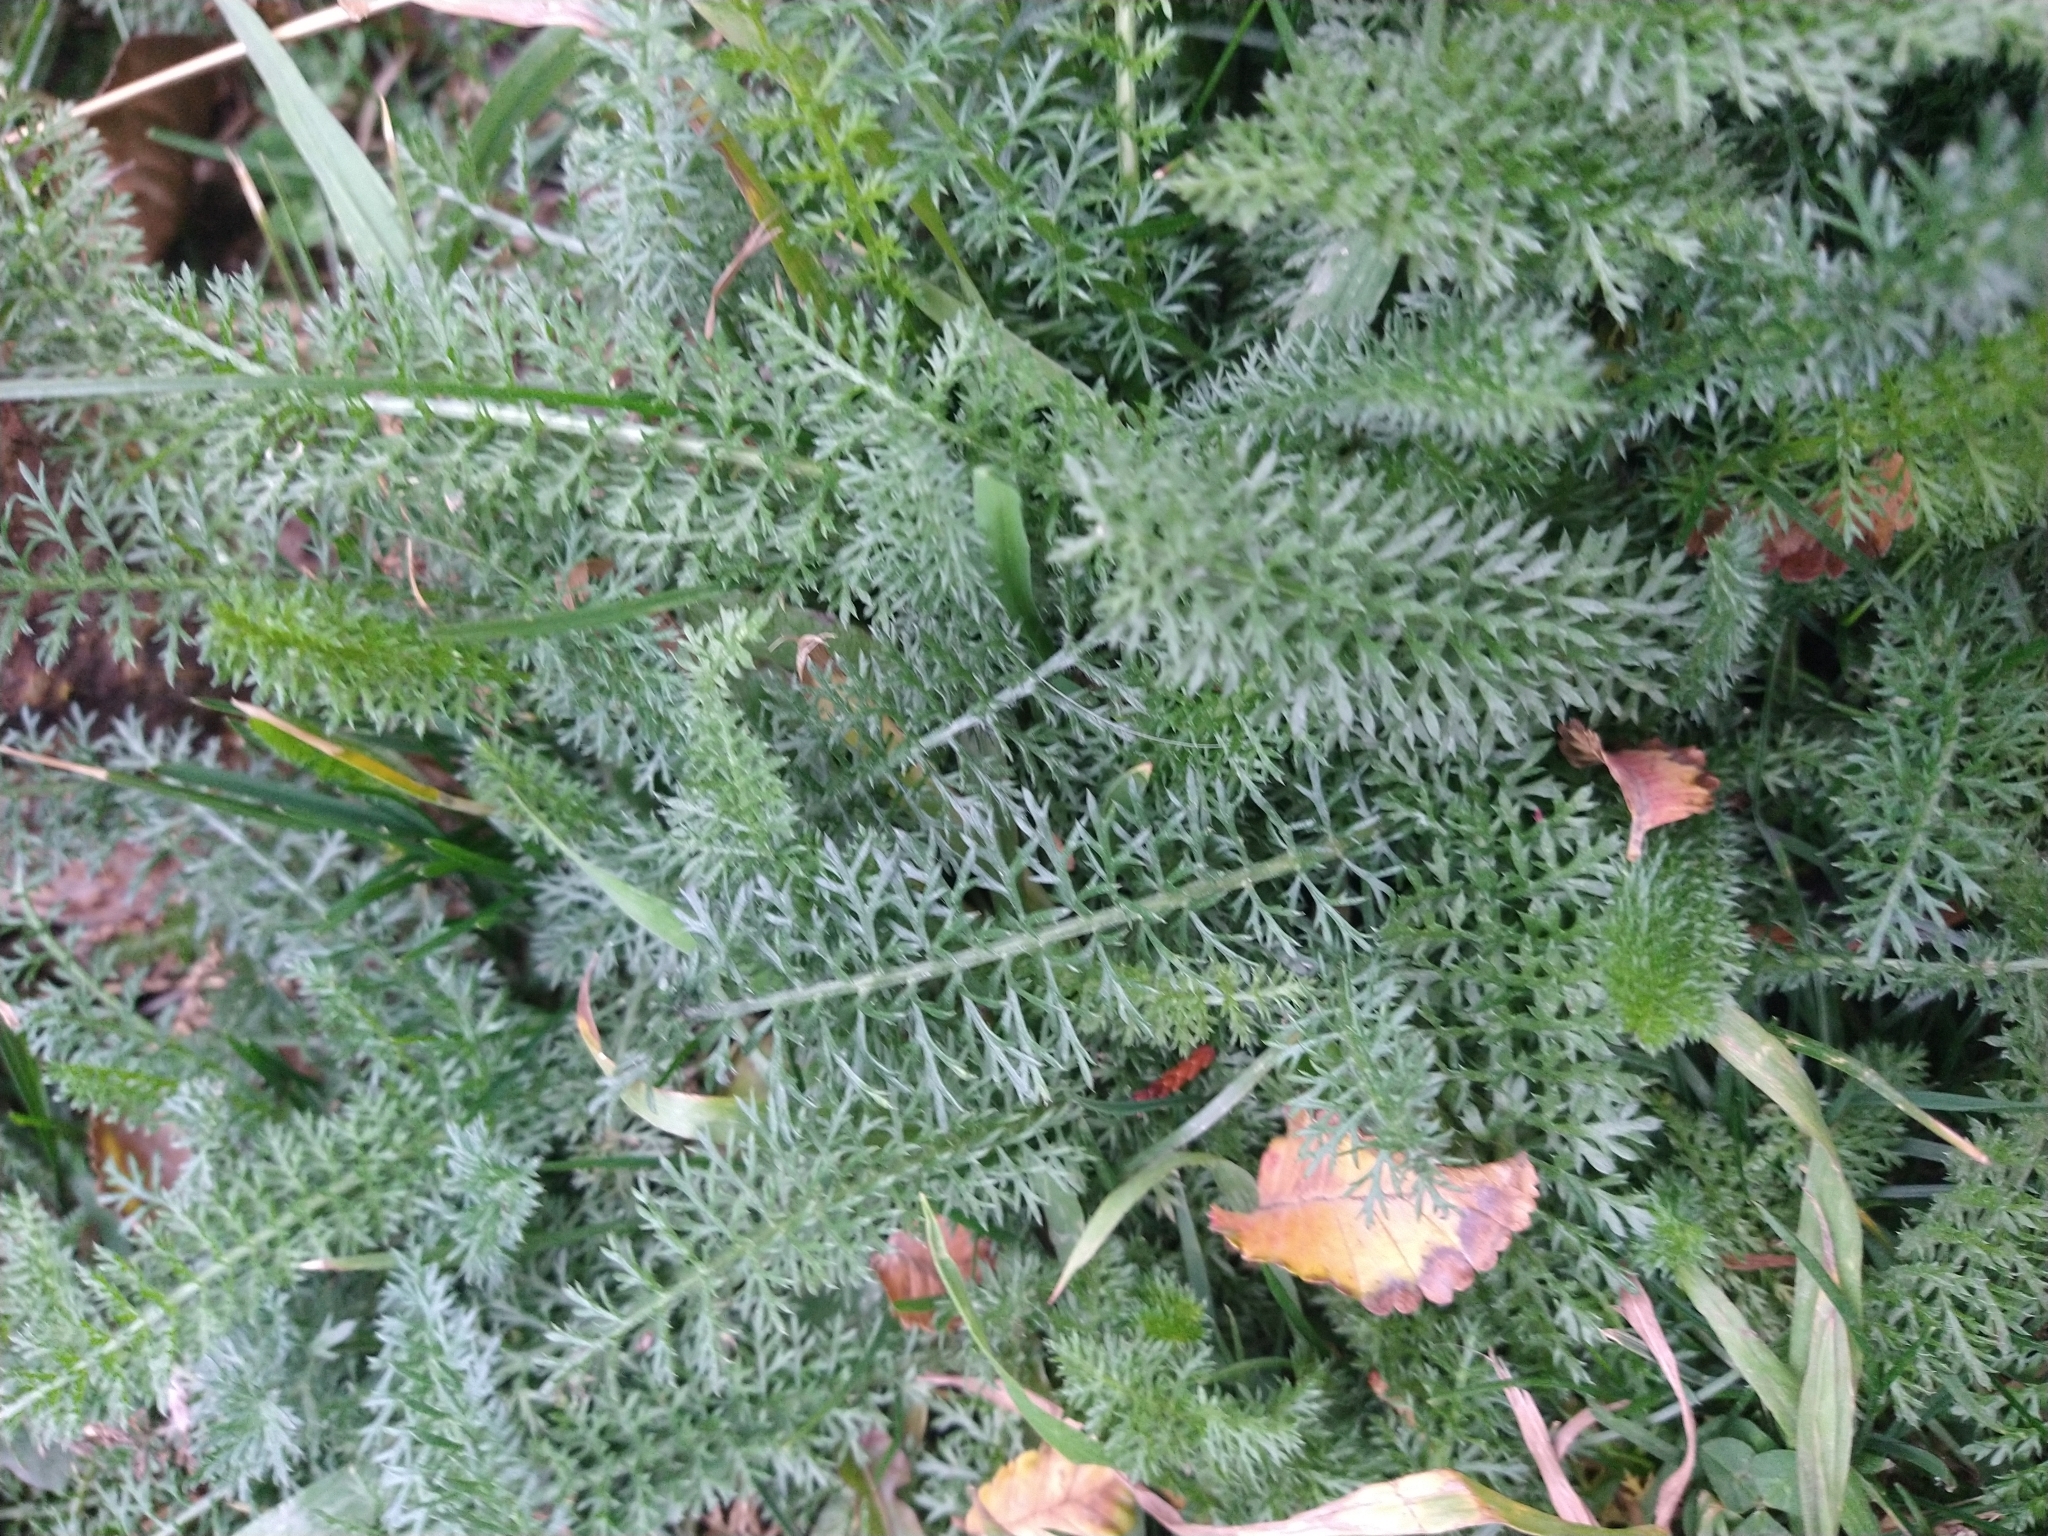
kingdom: Plantae
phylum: Tracheophyta
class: Magnoliopsida
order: Asterales
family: Asteraceae
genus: Achillea
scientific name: Achillea millefolium
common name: Yarrow
